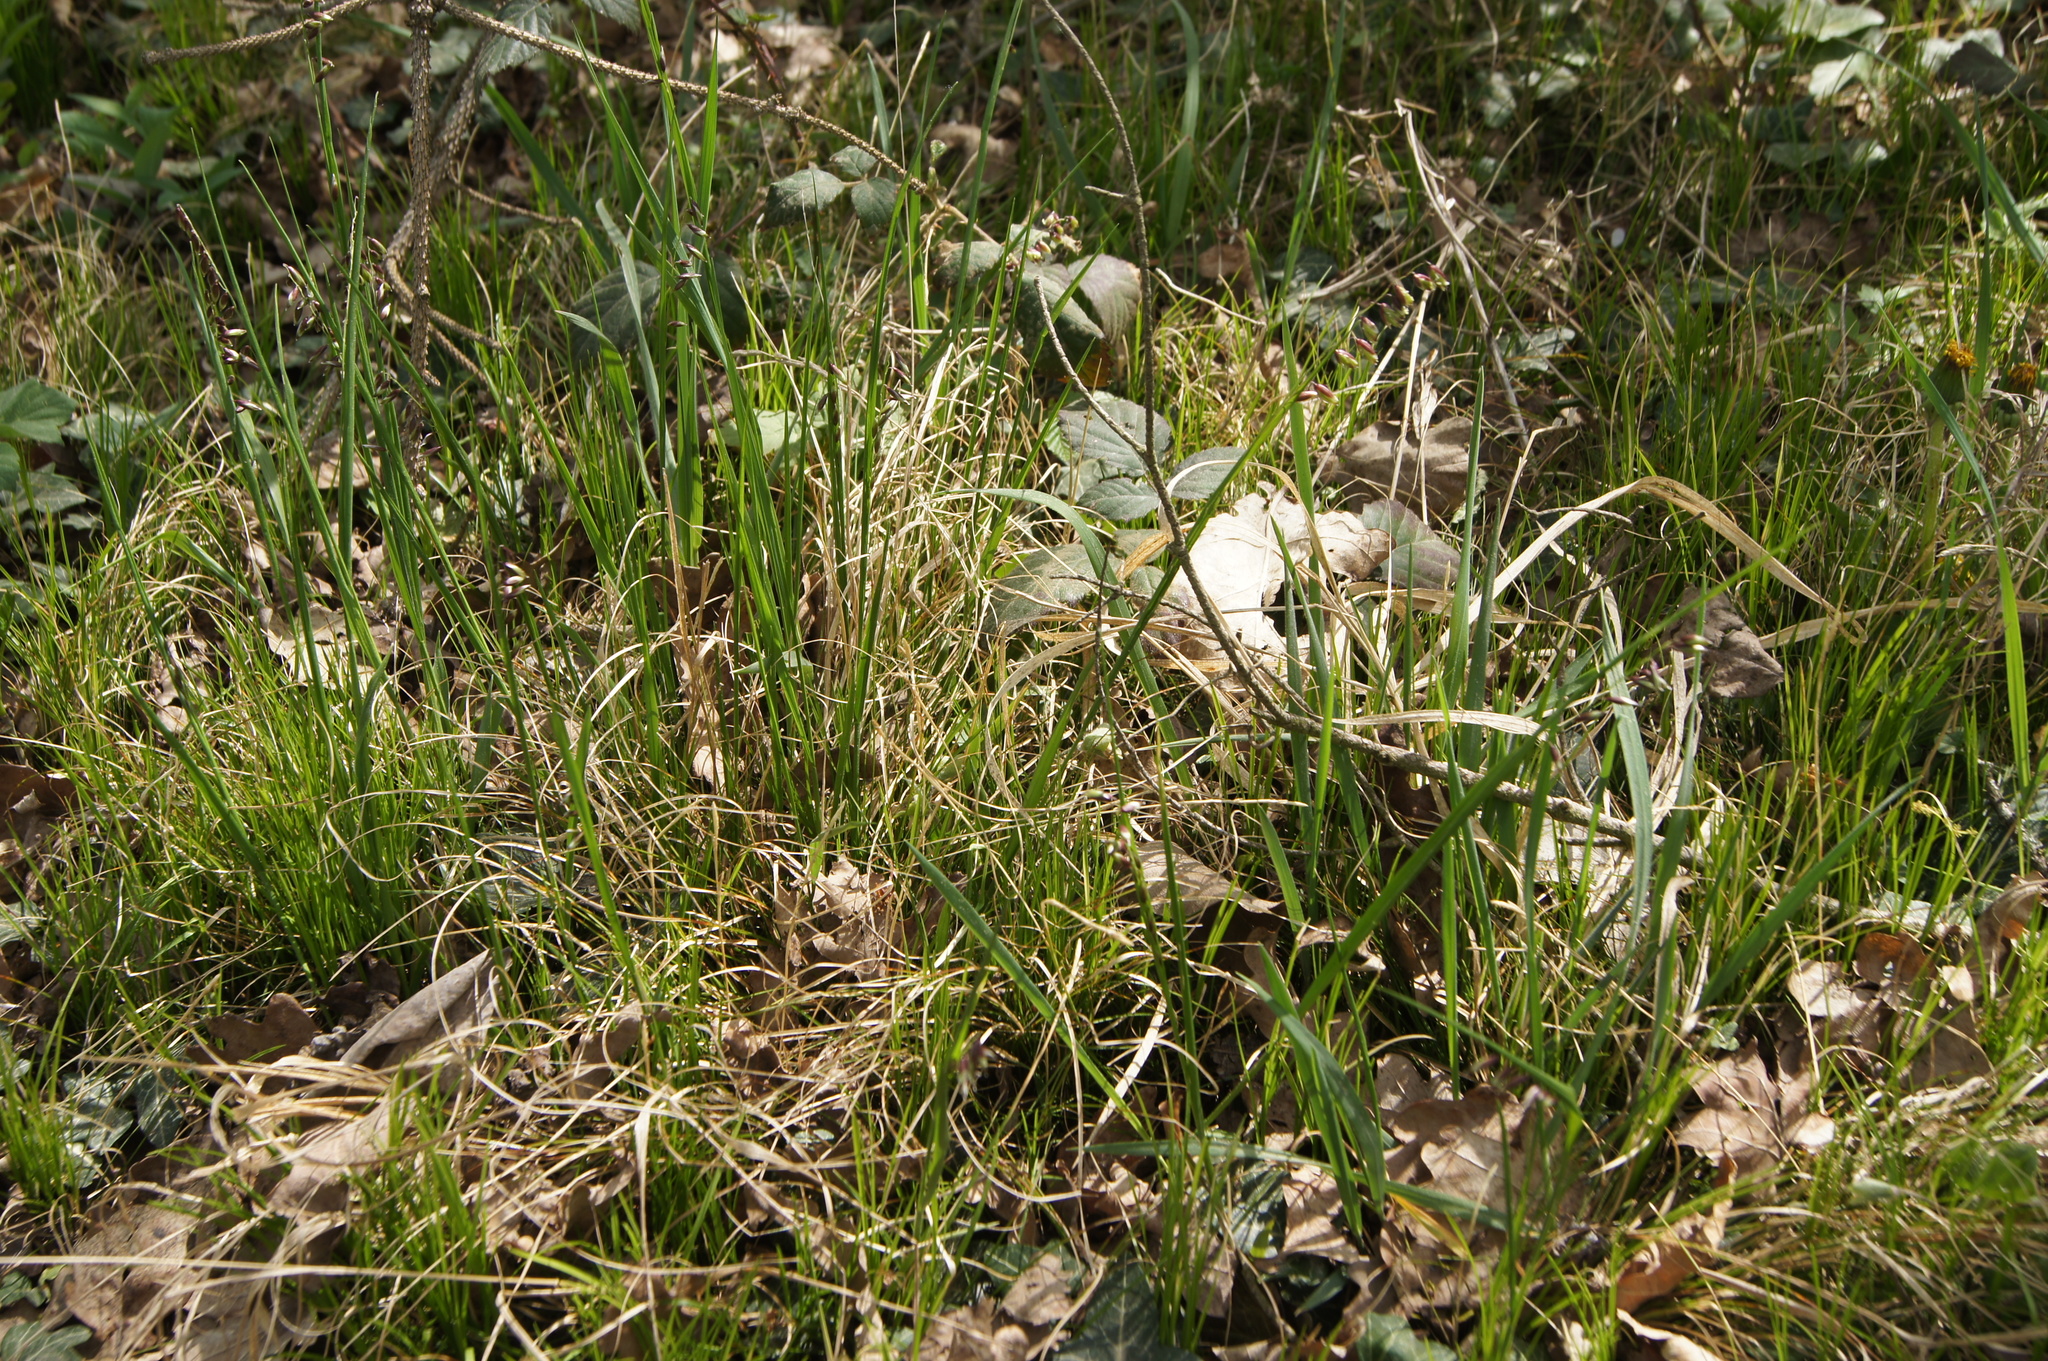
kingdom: Plantae
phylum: Tracheophyta
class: Liliopsida
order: Poales
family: Poaceae
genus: Melica
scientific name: Melica nutans
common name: Mountain melick
